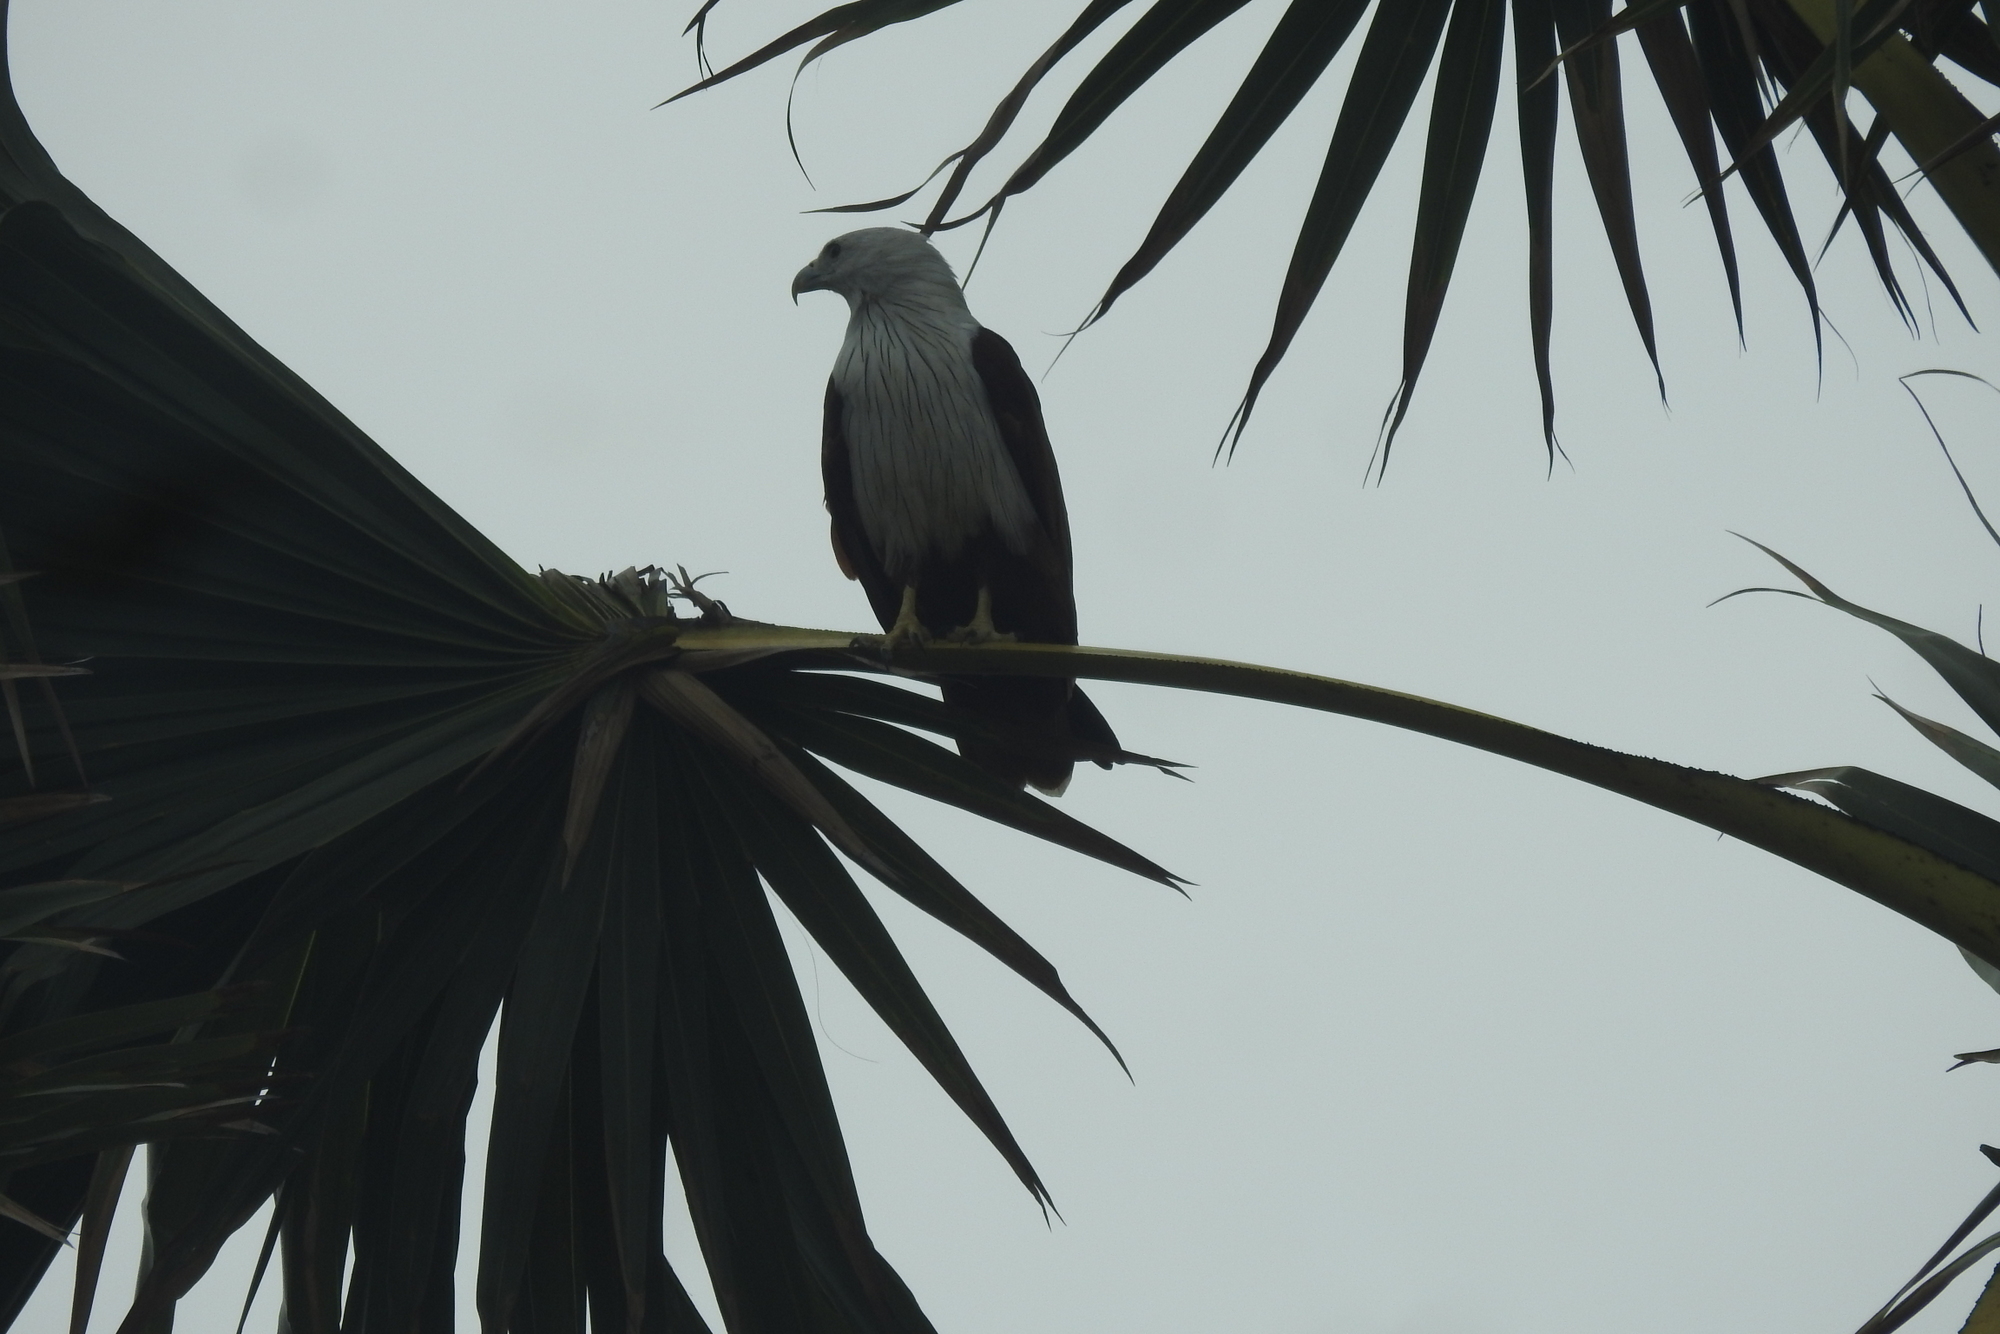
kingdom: Animalia
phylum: Chordata
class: Aves
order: Accipitriformes
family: Accipitridae
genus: Haliastur
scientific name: Haliastur indus
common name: Brahminy kite
